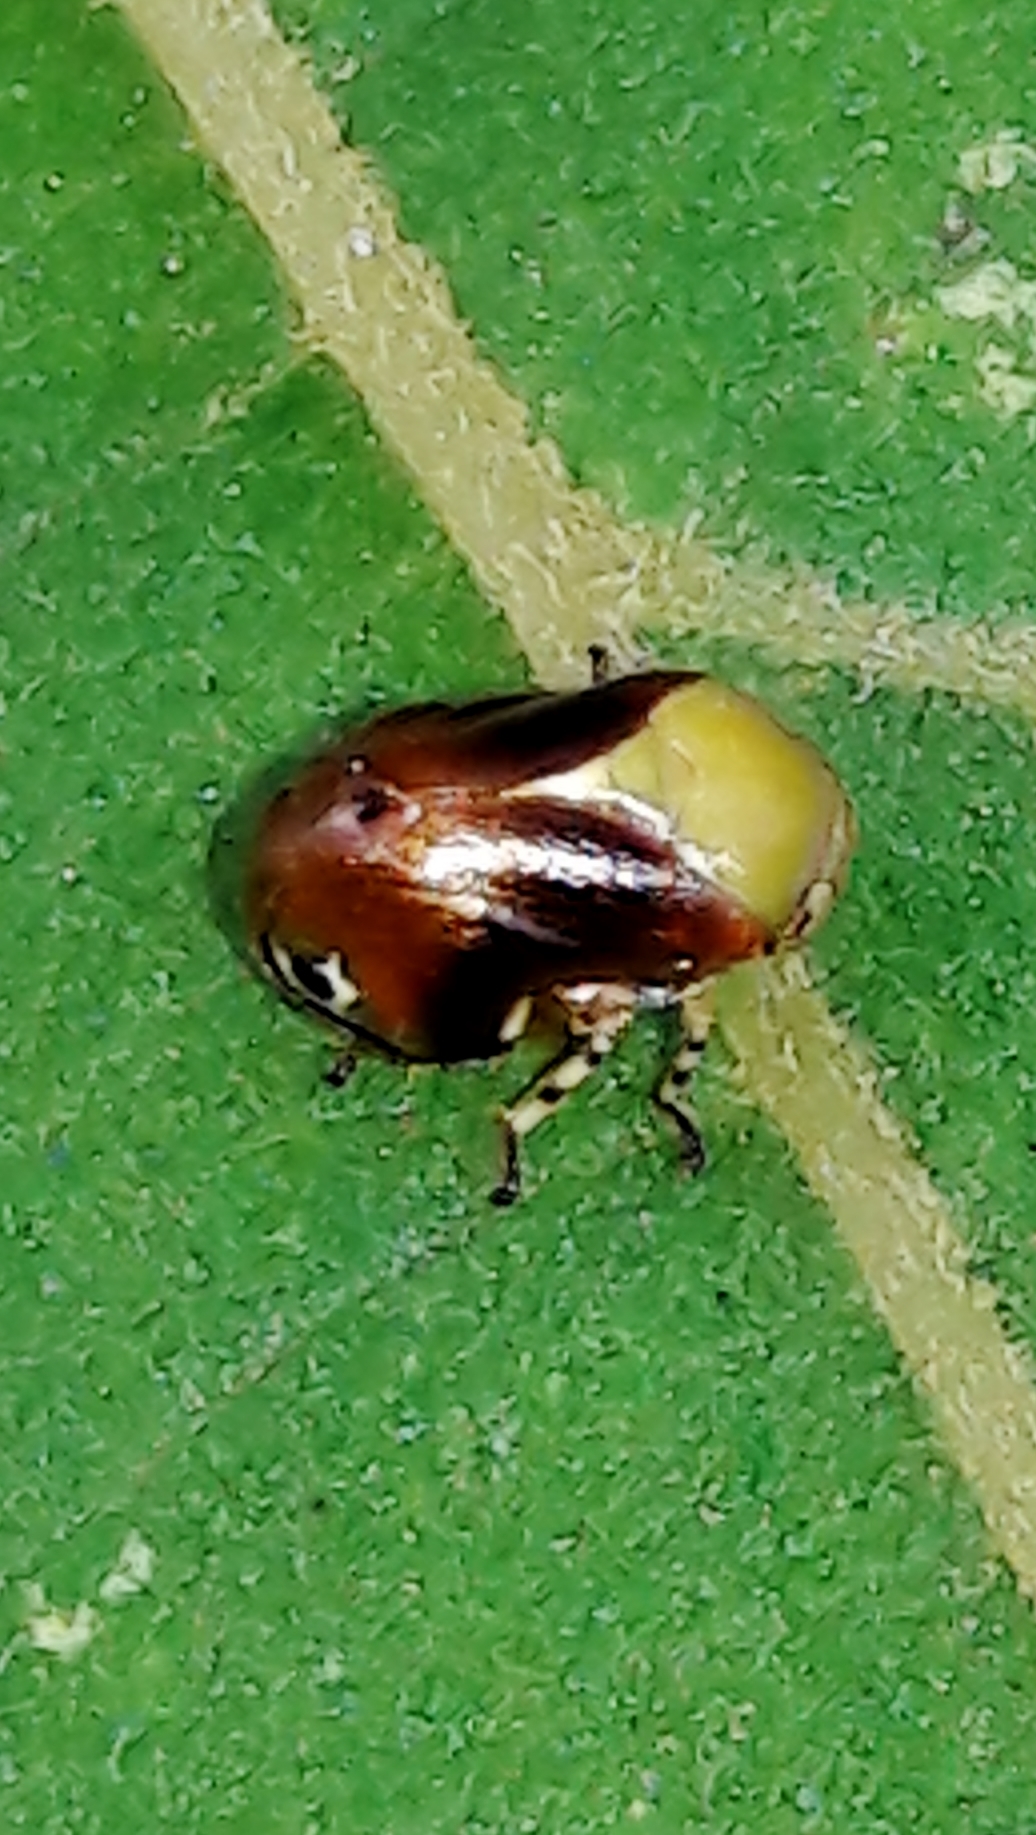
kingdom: Animalia
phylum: Arthropoda
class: Insecta
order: Hemiptera
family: Clastopteridae
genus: Clastoptera
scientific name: Clastoptera cimicoides
